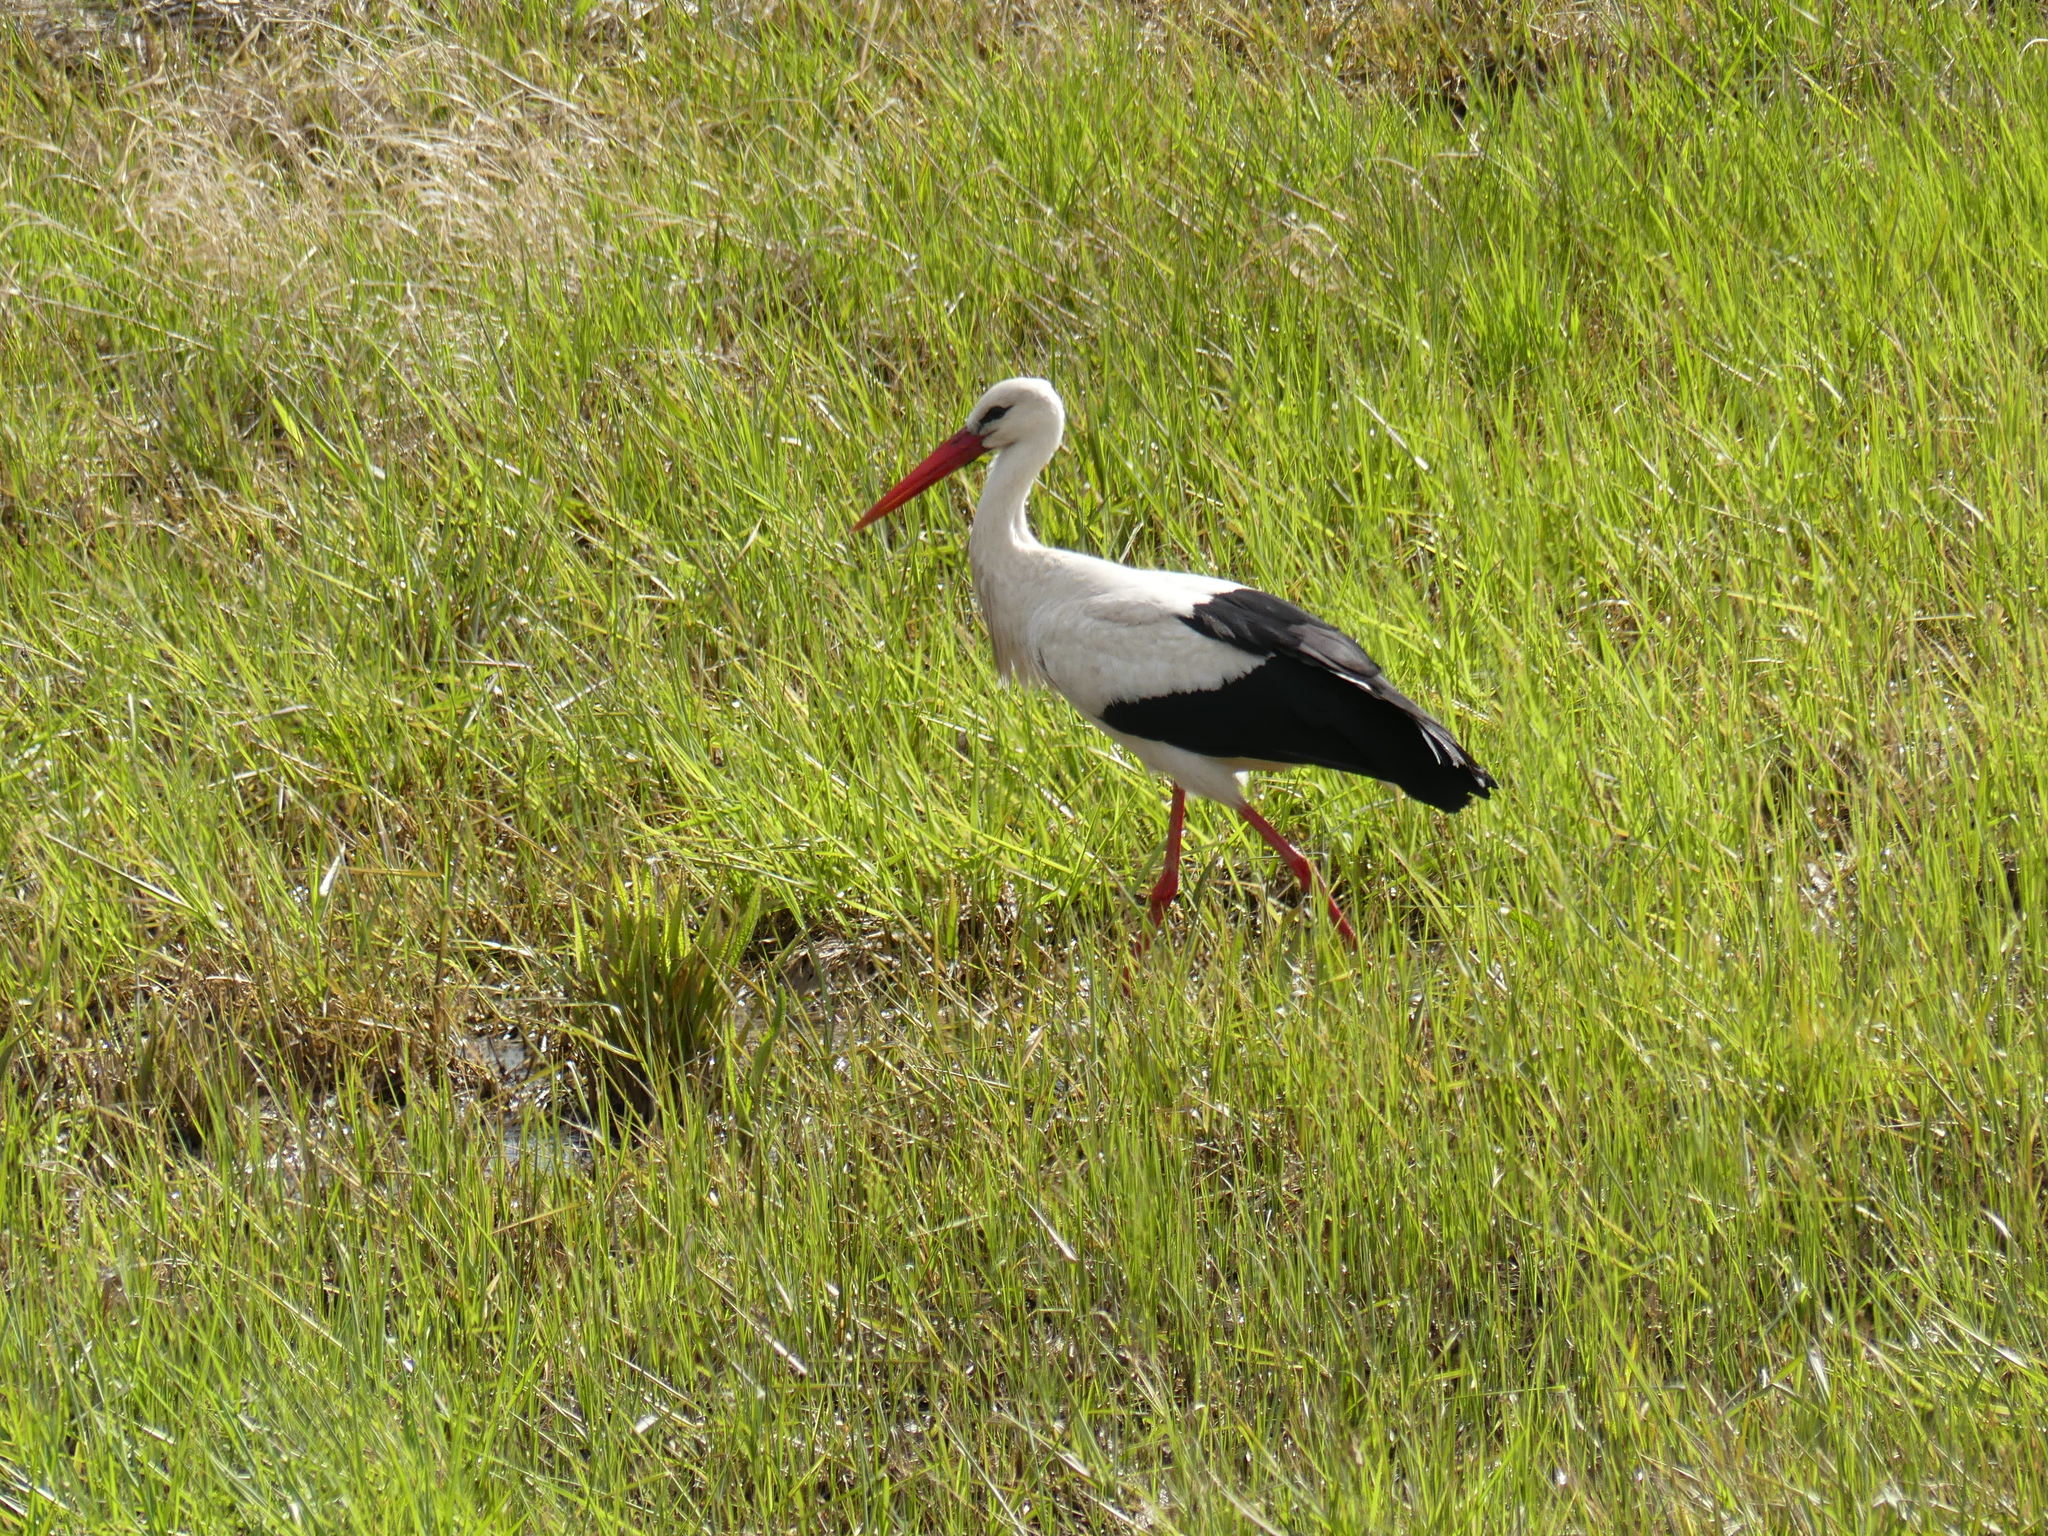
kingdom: Animalia
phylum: Chordata
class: Aves
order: Ciconiiformes
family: Ciconiidae
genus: Ciconia
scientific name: Ciconia ciconia
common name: White stork
